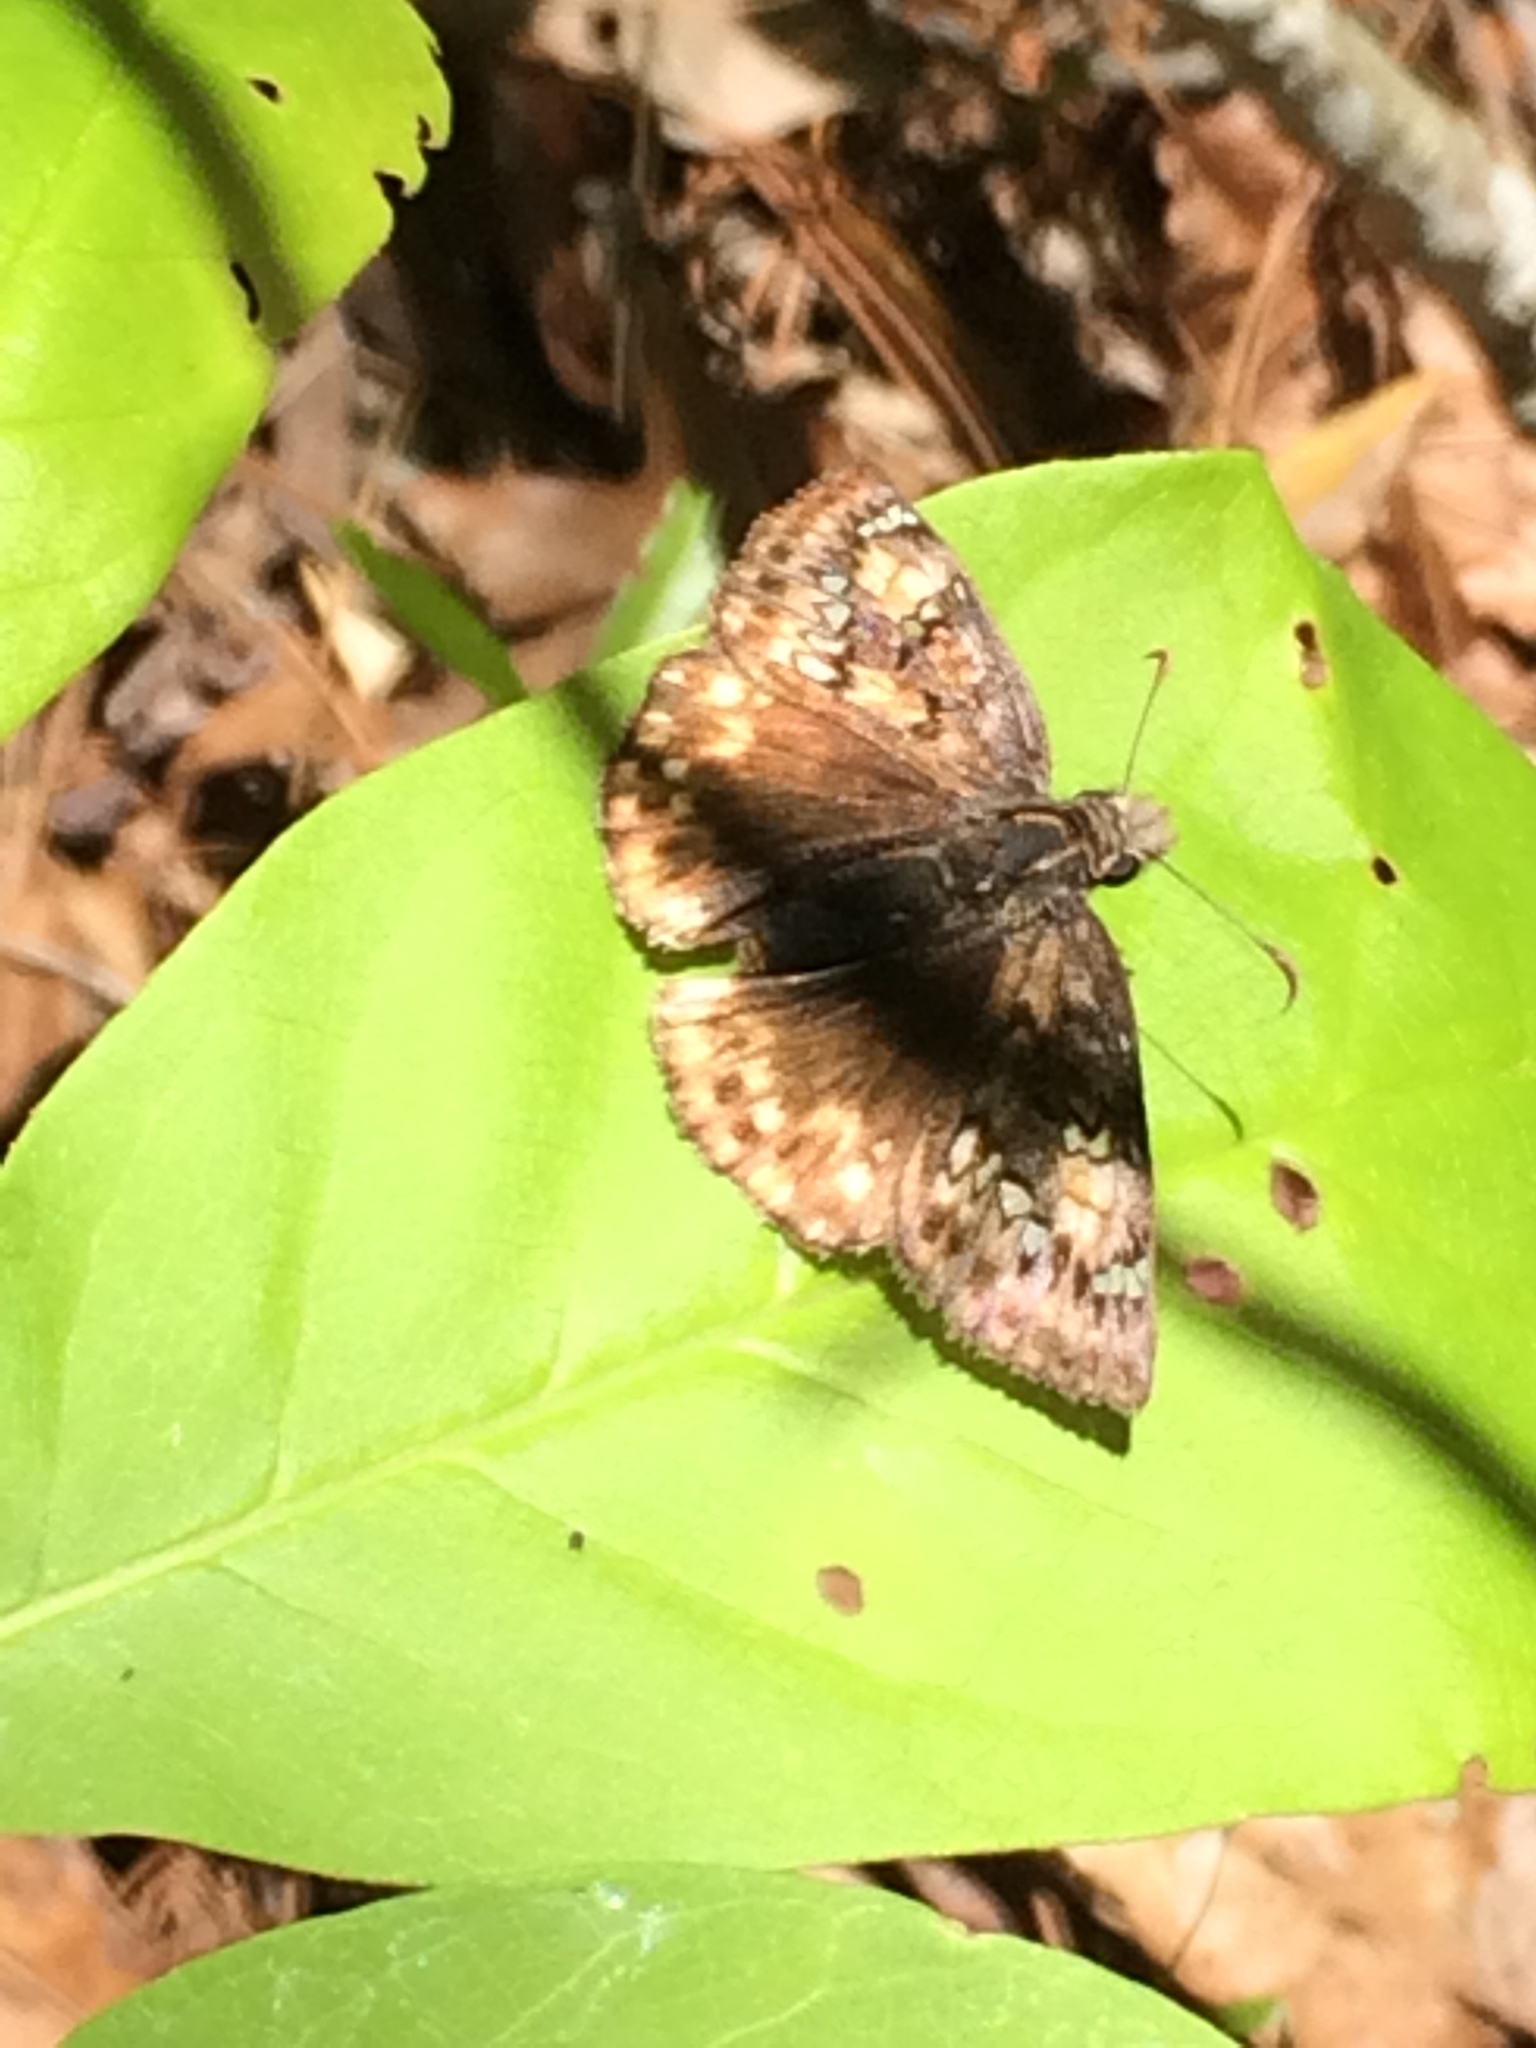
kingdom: Animalia
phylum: Arthropoda
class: Insecta
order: Lepidoptera
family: Hesperiidae
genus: Erynnis
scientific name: Erynnis juvenalis
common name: Juvenal's duskywing
